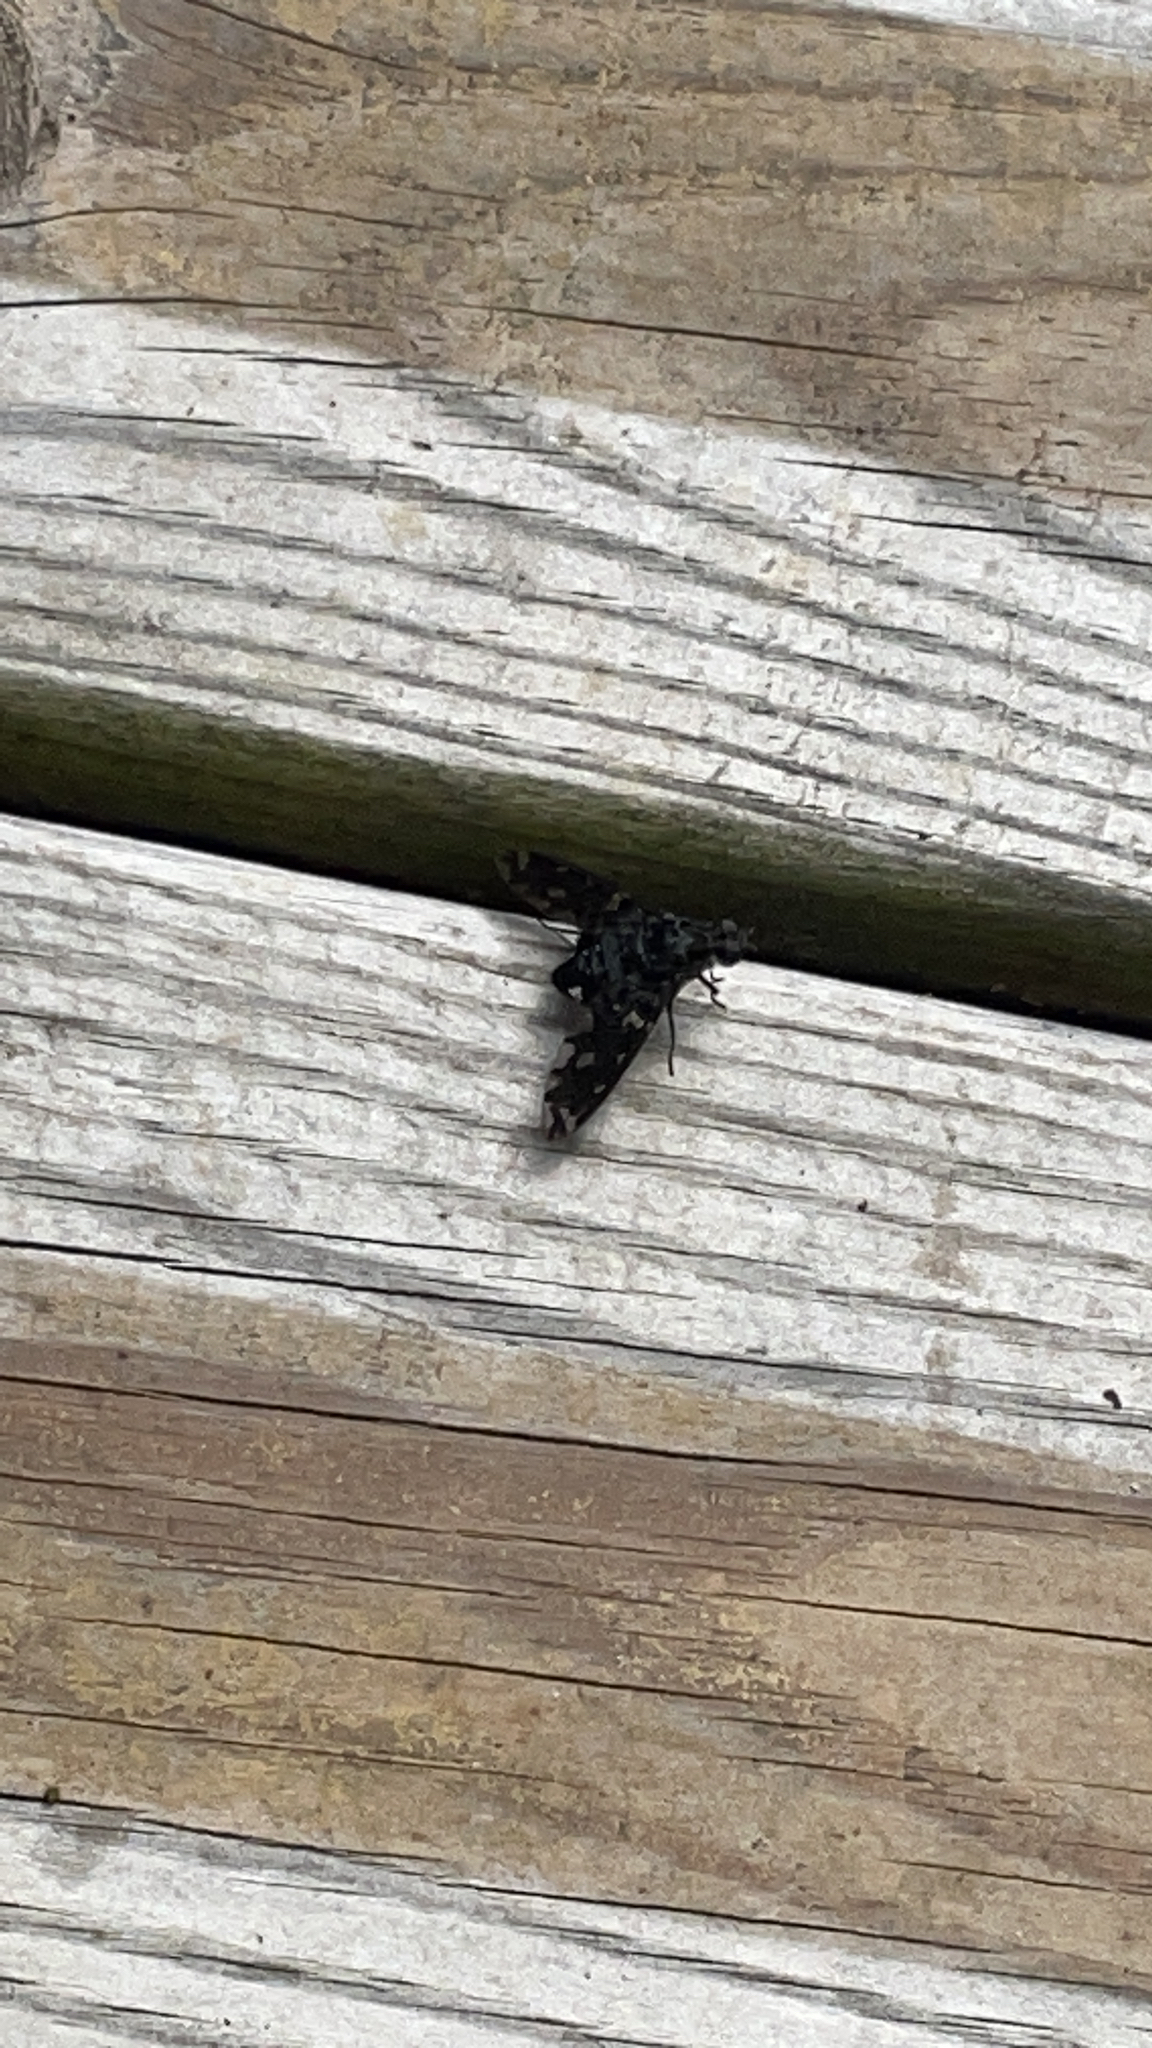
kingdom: Animalia
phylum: Arthropoda
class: Insecta
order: Diptera
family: Bombyliidae
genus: Xenox
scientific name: Xenox tigrinus
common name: Tiger bee fly
